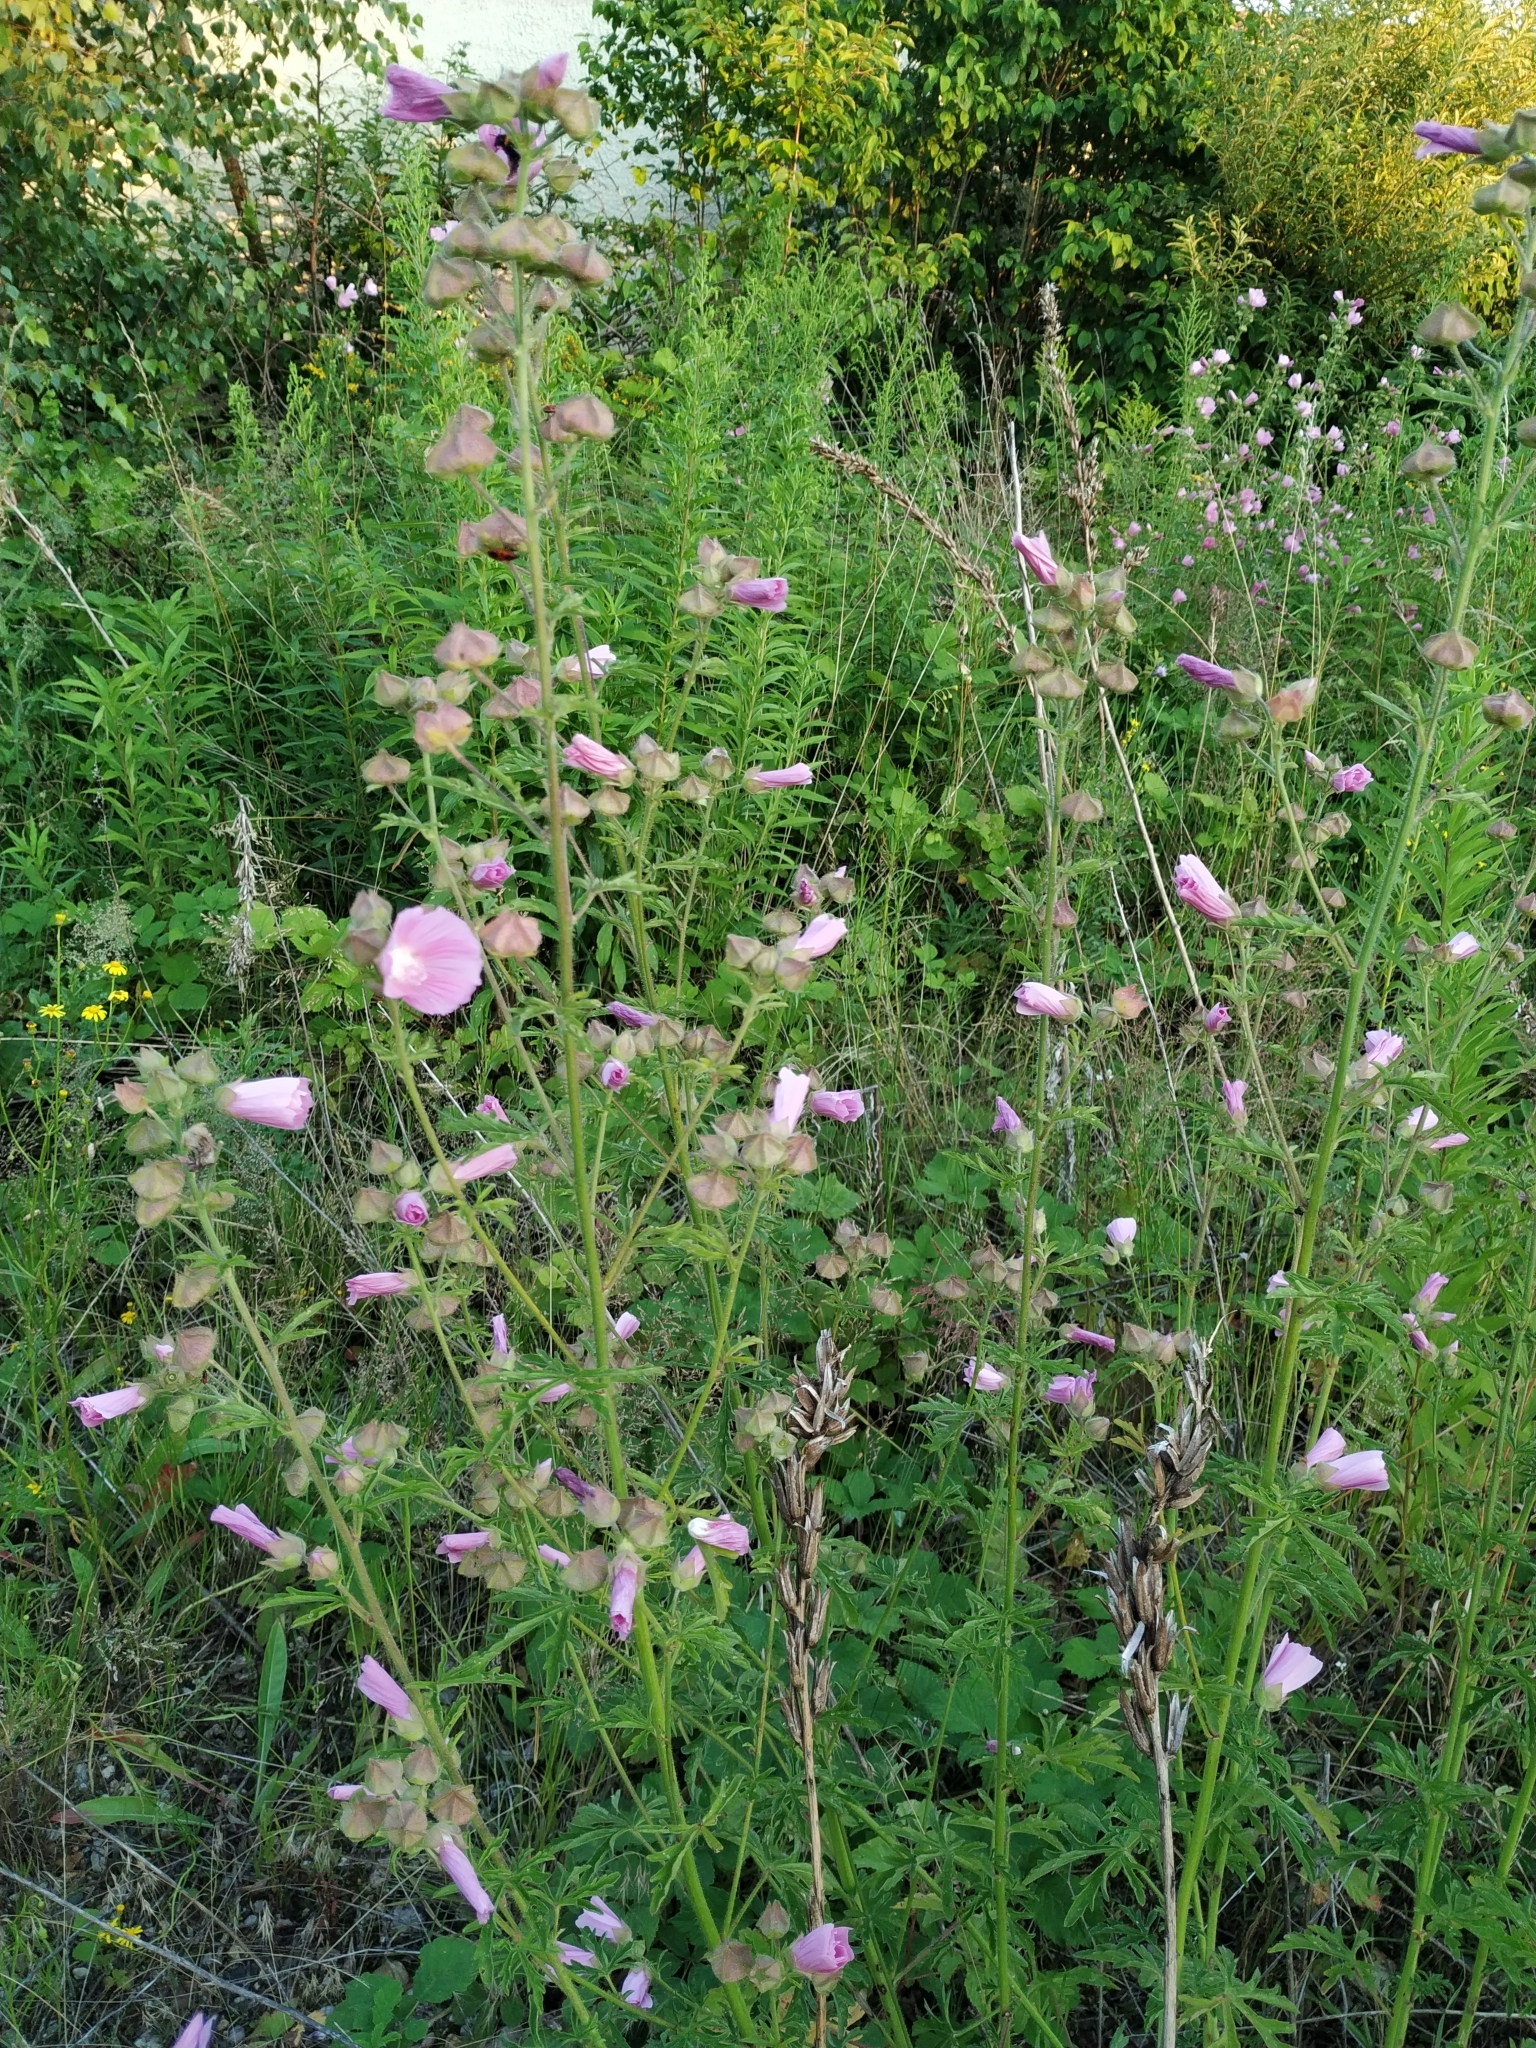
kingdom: Plantae
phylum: Tracheophyta
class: Magnoliopsida
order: Malvales
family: Malvaceae
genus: Malva
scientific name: Malva alcea
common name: Greater musk-mallow
